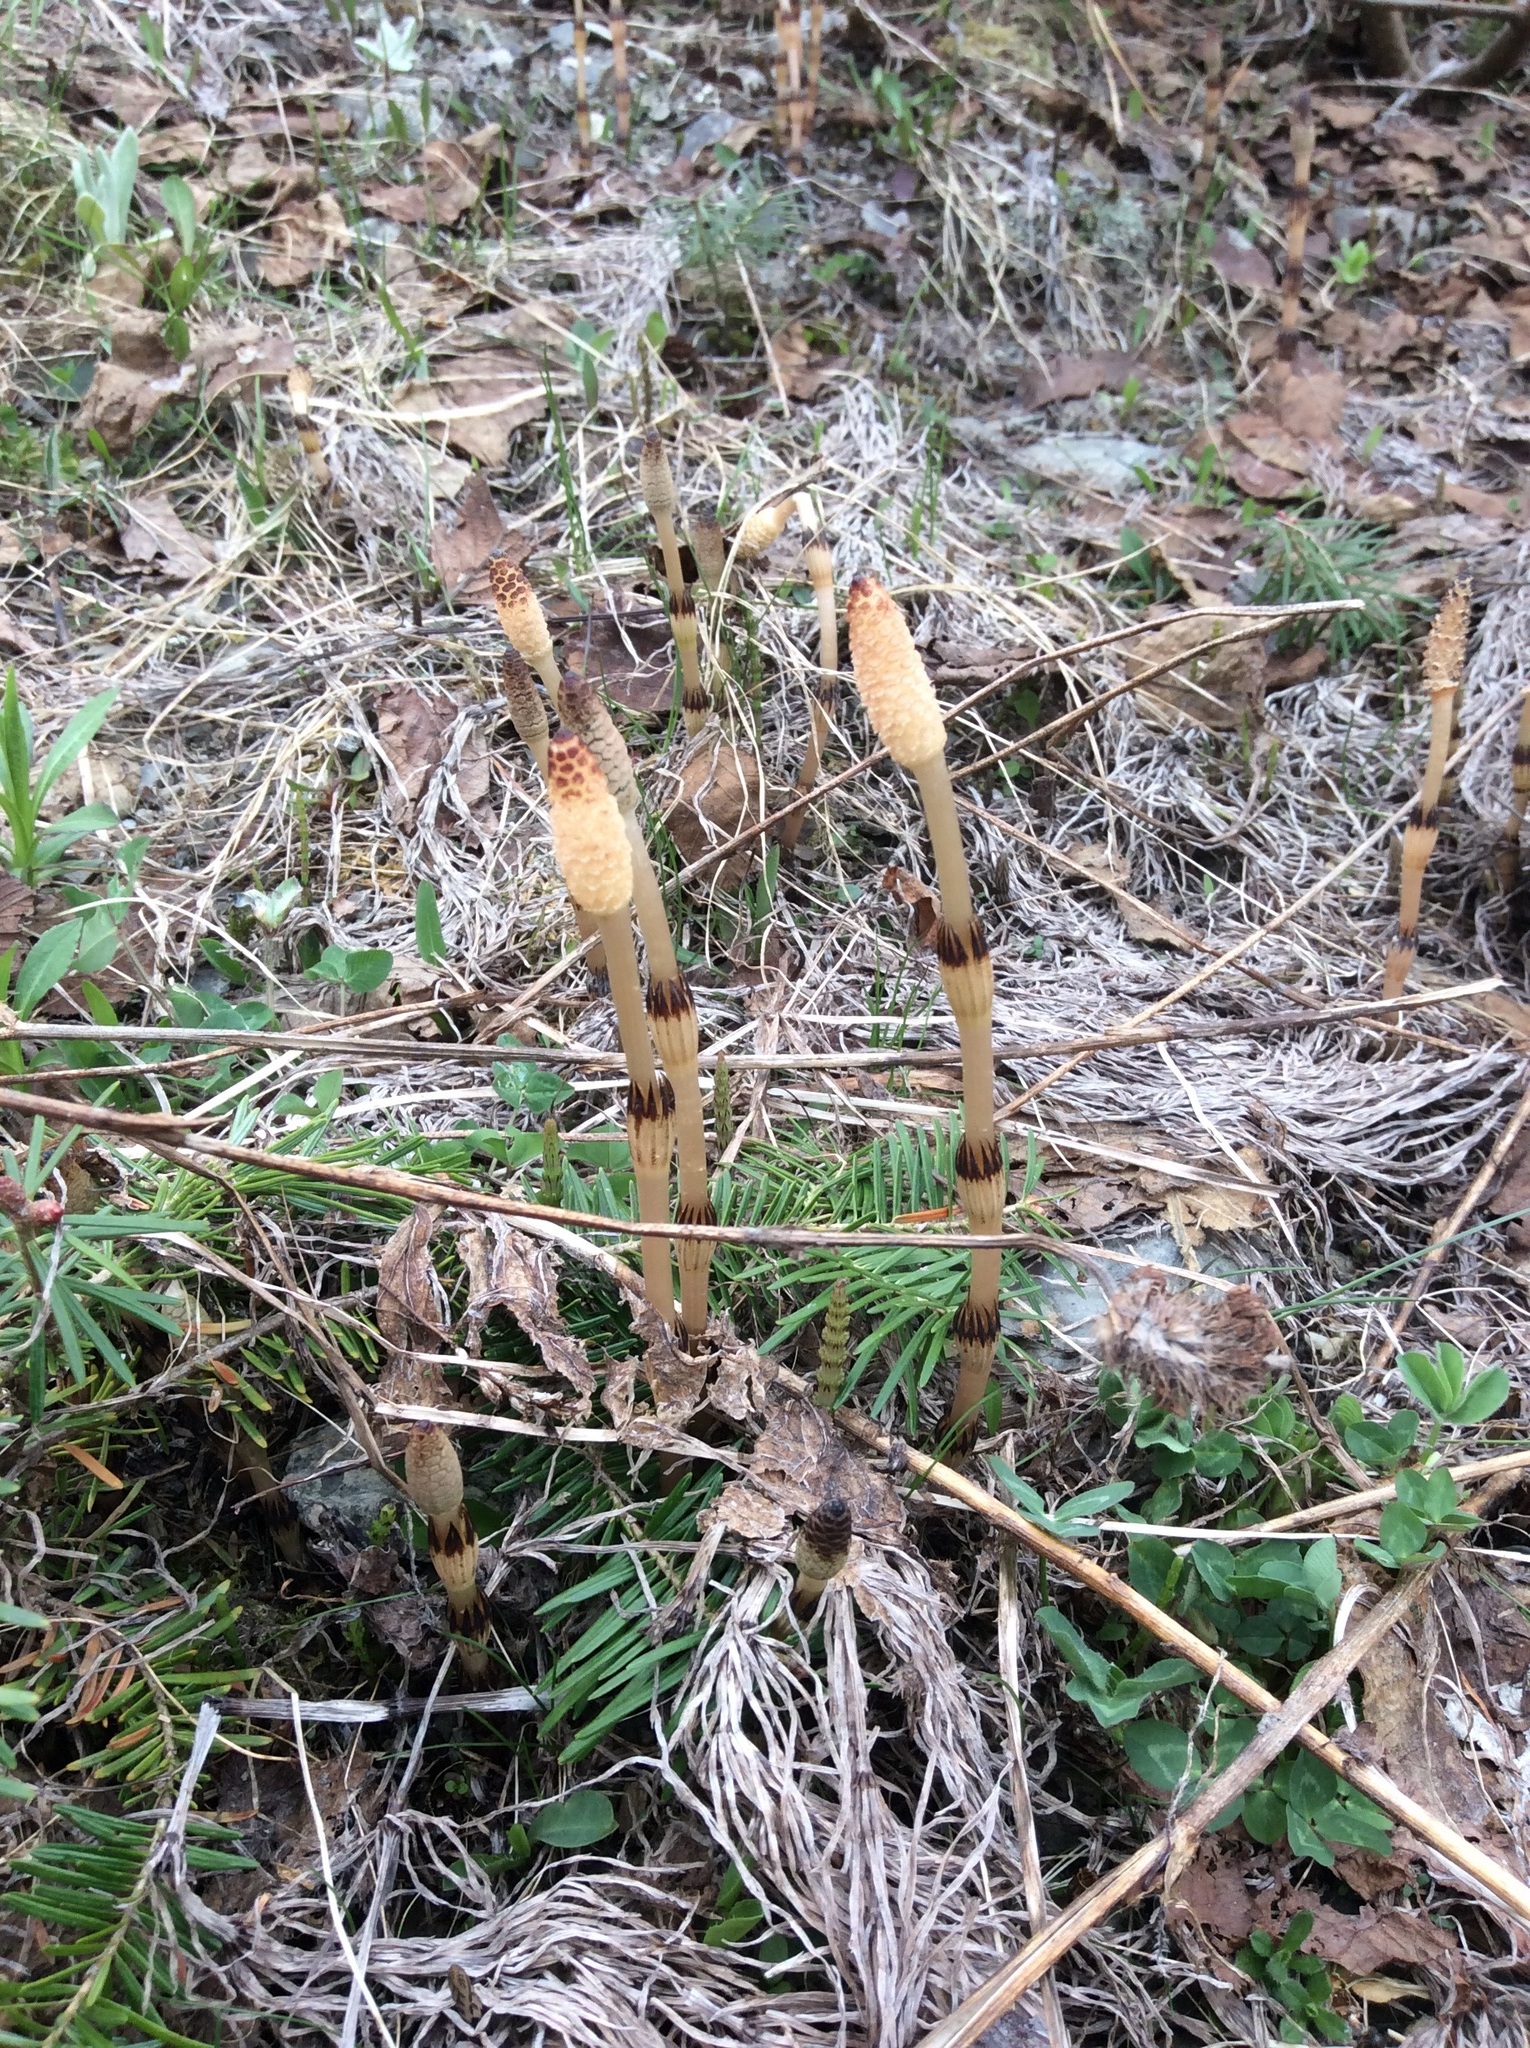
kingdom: Plantae
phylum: Tracheophyta
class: Polypodiopsida
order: Equisetales
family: Equisetaceae
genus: Equisetum
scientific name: Equisetum arvense
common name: Field horsetail
